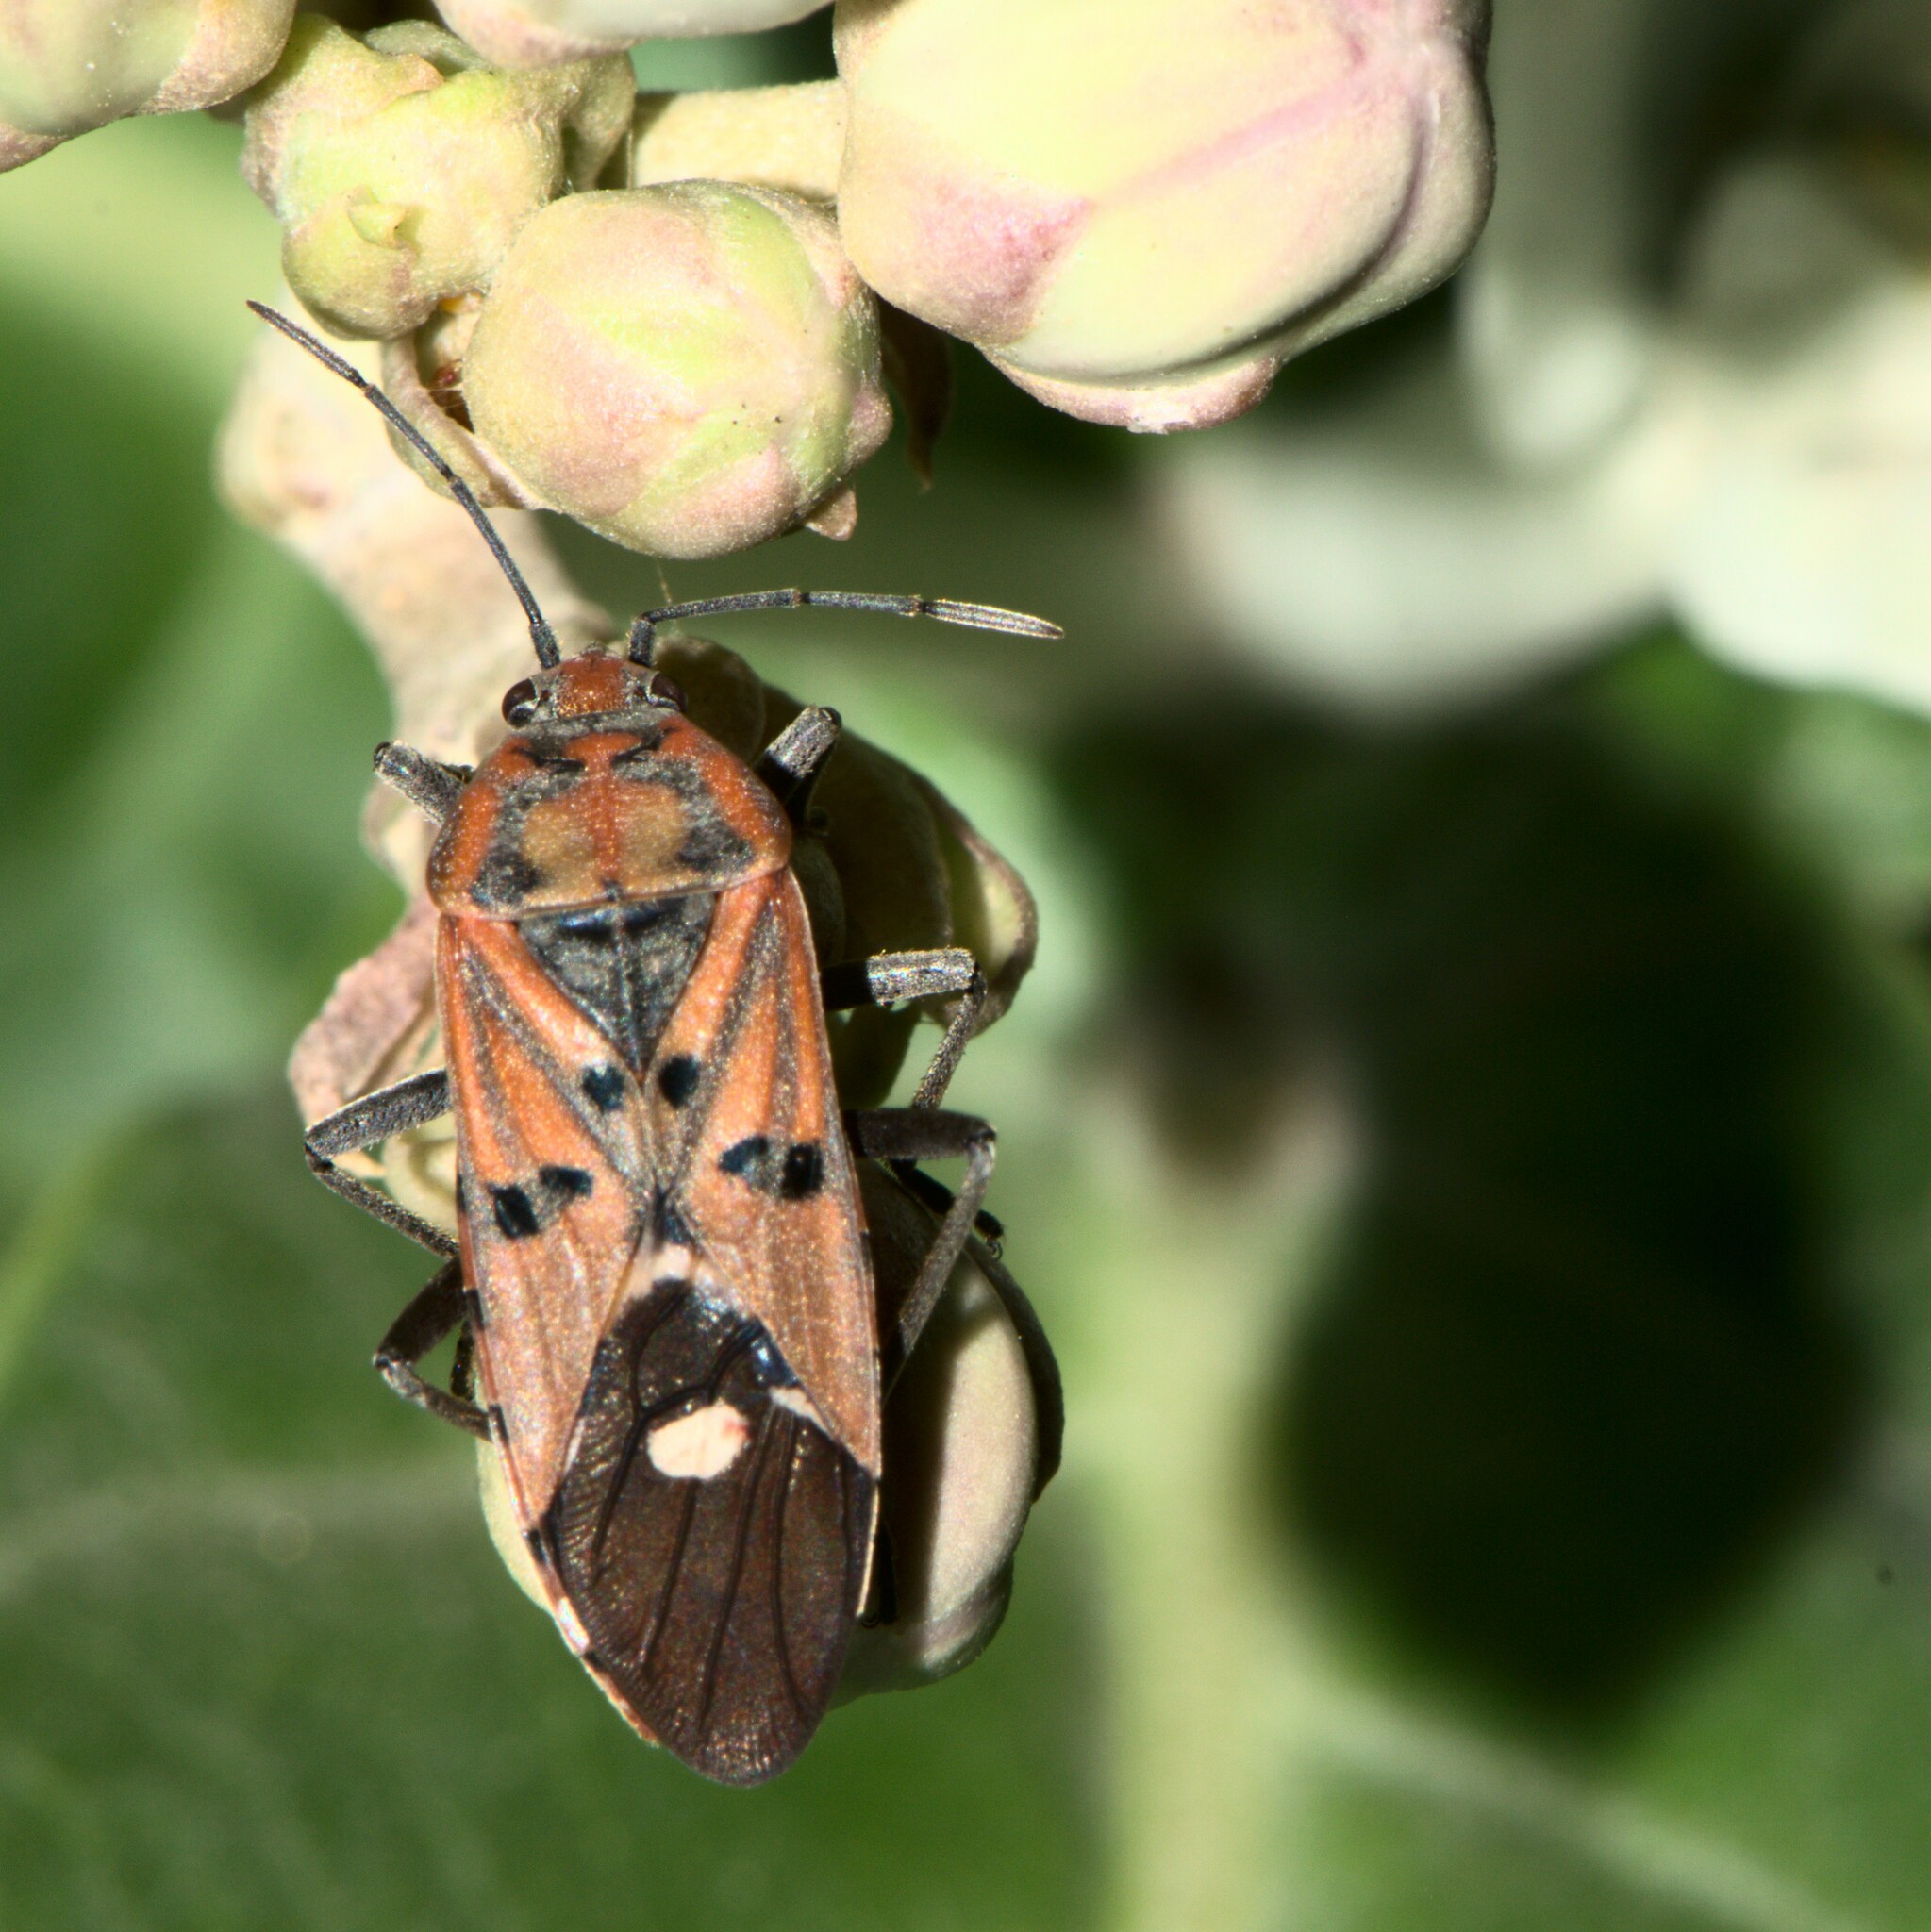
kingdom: Animalia
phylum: Arthropoda
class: Insecta
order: Hemiptera
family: Lygaeidae
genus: Spilostethus
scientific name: Spilostethus pandurus
